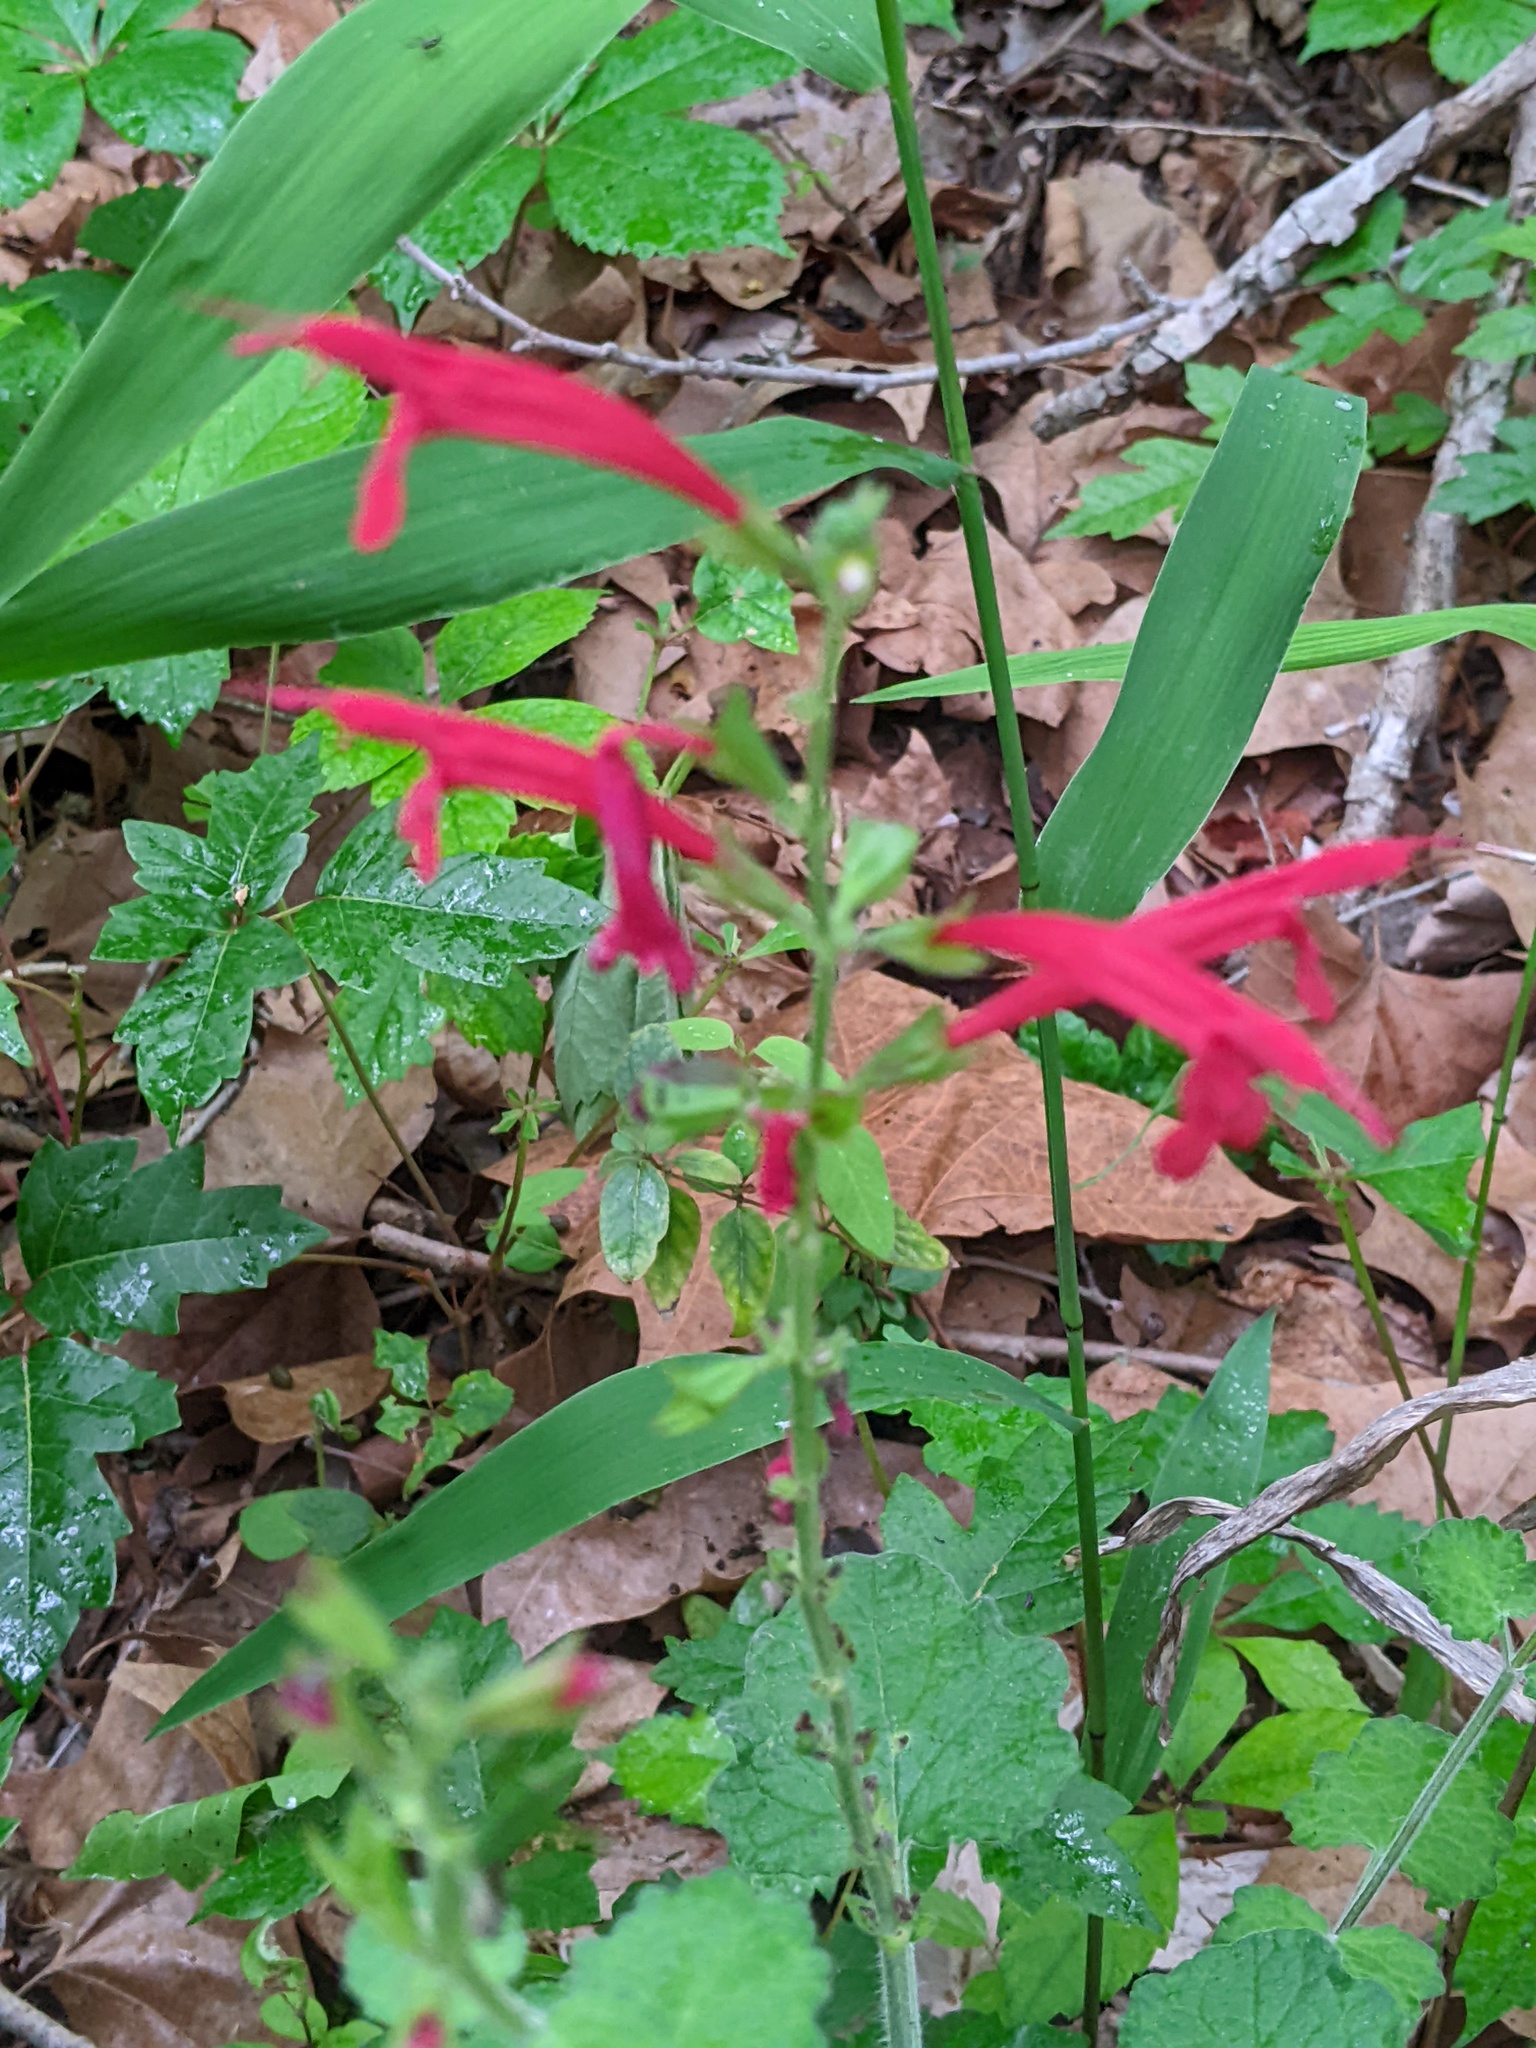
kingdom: Plantae
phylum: Tracheophyta
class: Magnoliopsida
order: Lamiales
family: Lamiaceae
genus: Salvia
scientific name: Salvia roemeriana
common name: Cedar sage
